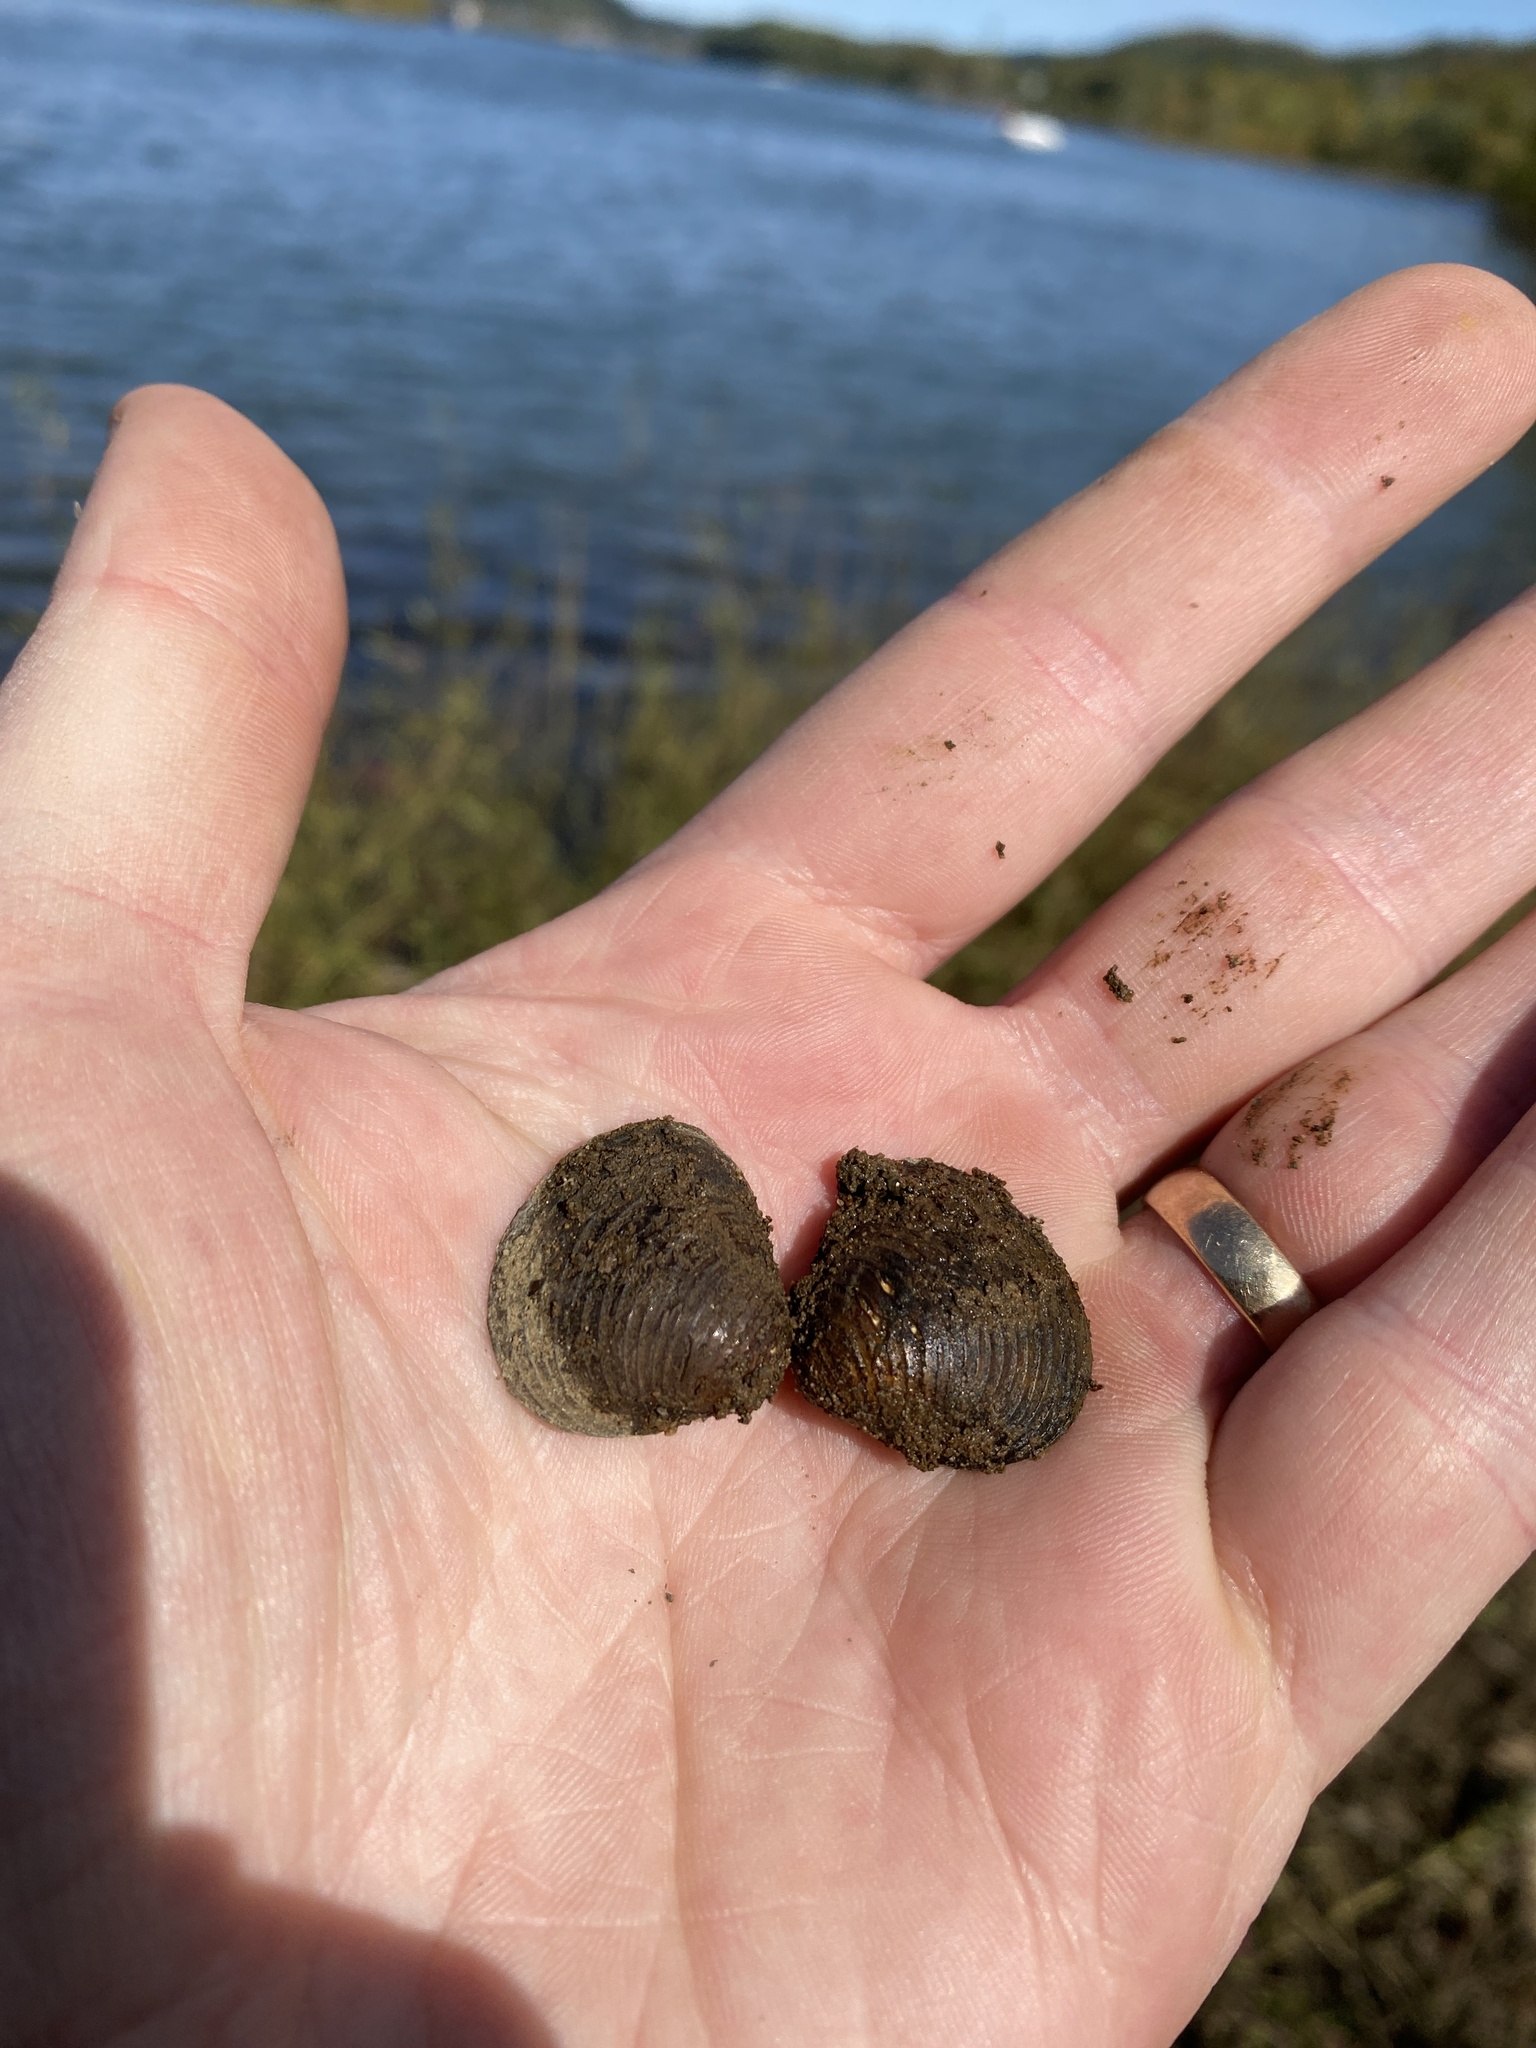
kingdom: Animalia
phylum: Mollusca
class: Bivalvia
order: Venerida
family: Cyrenidae
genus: Corbicula
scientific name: Corbicula fluminea
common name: Asian clam
